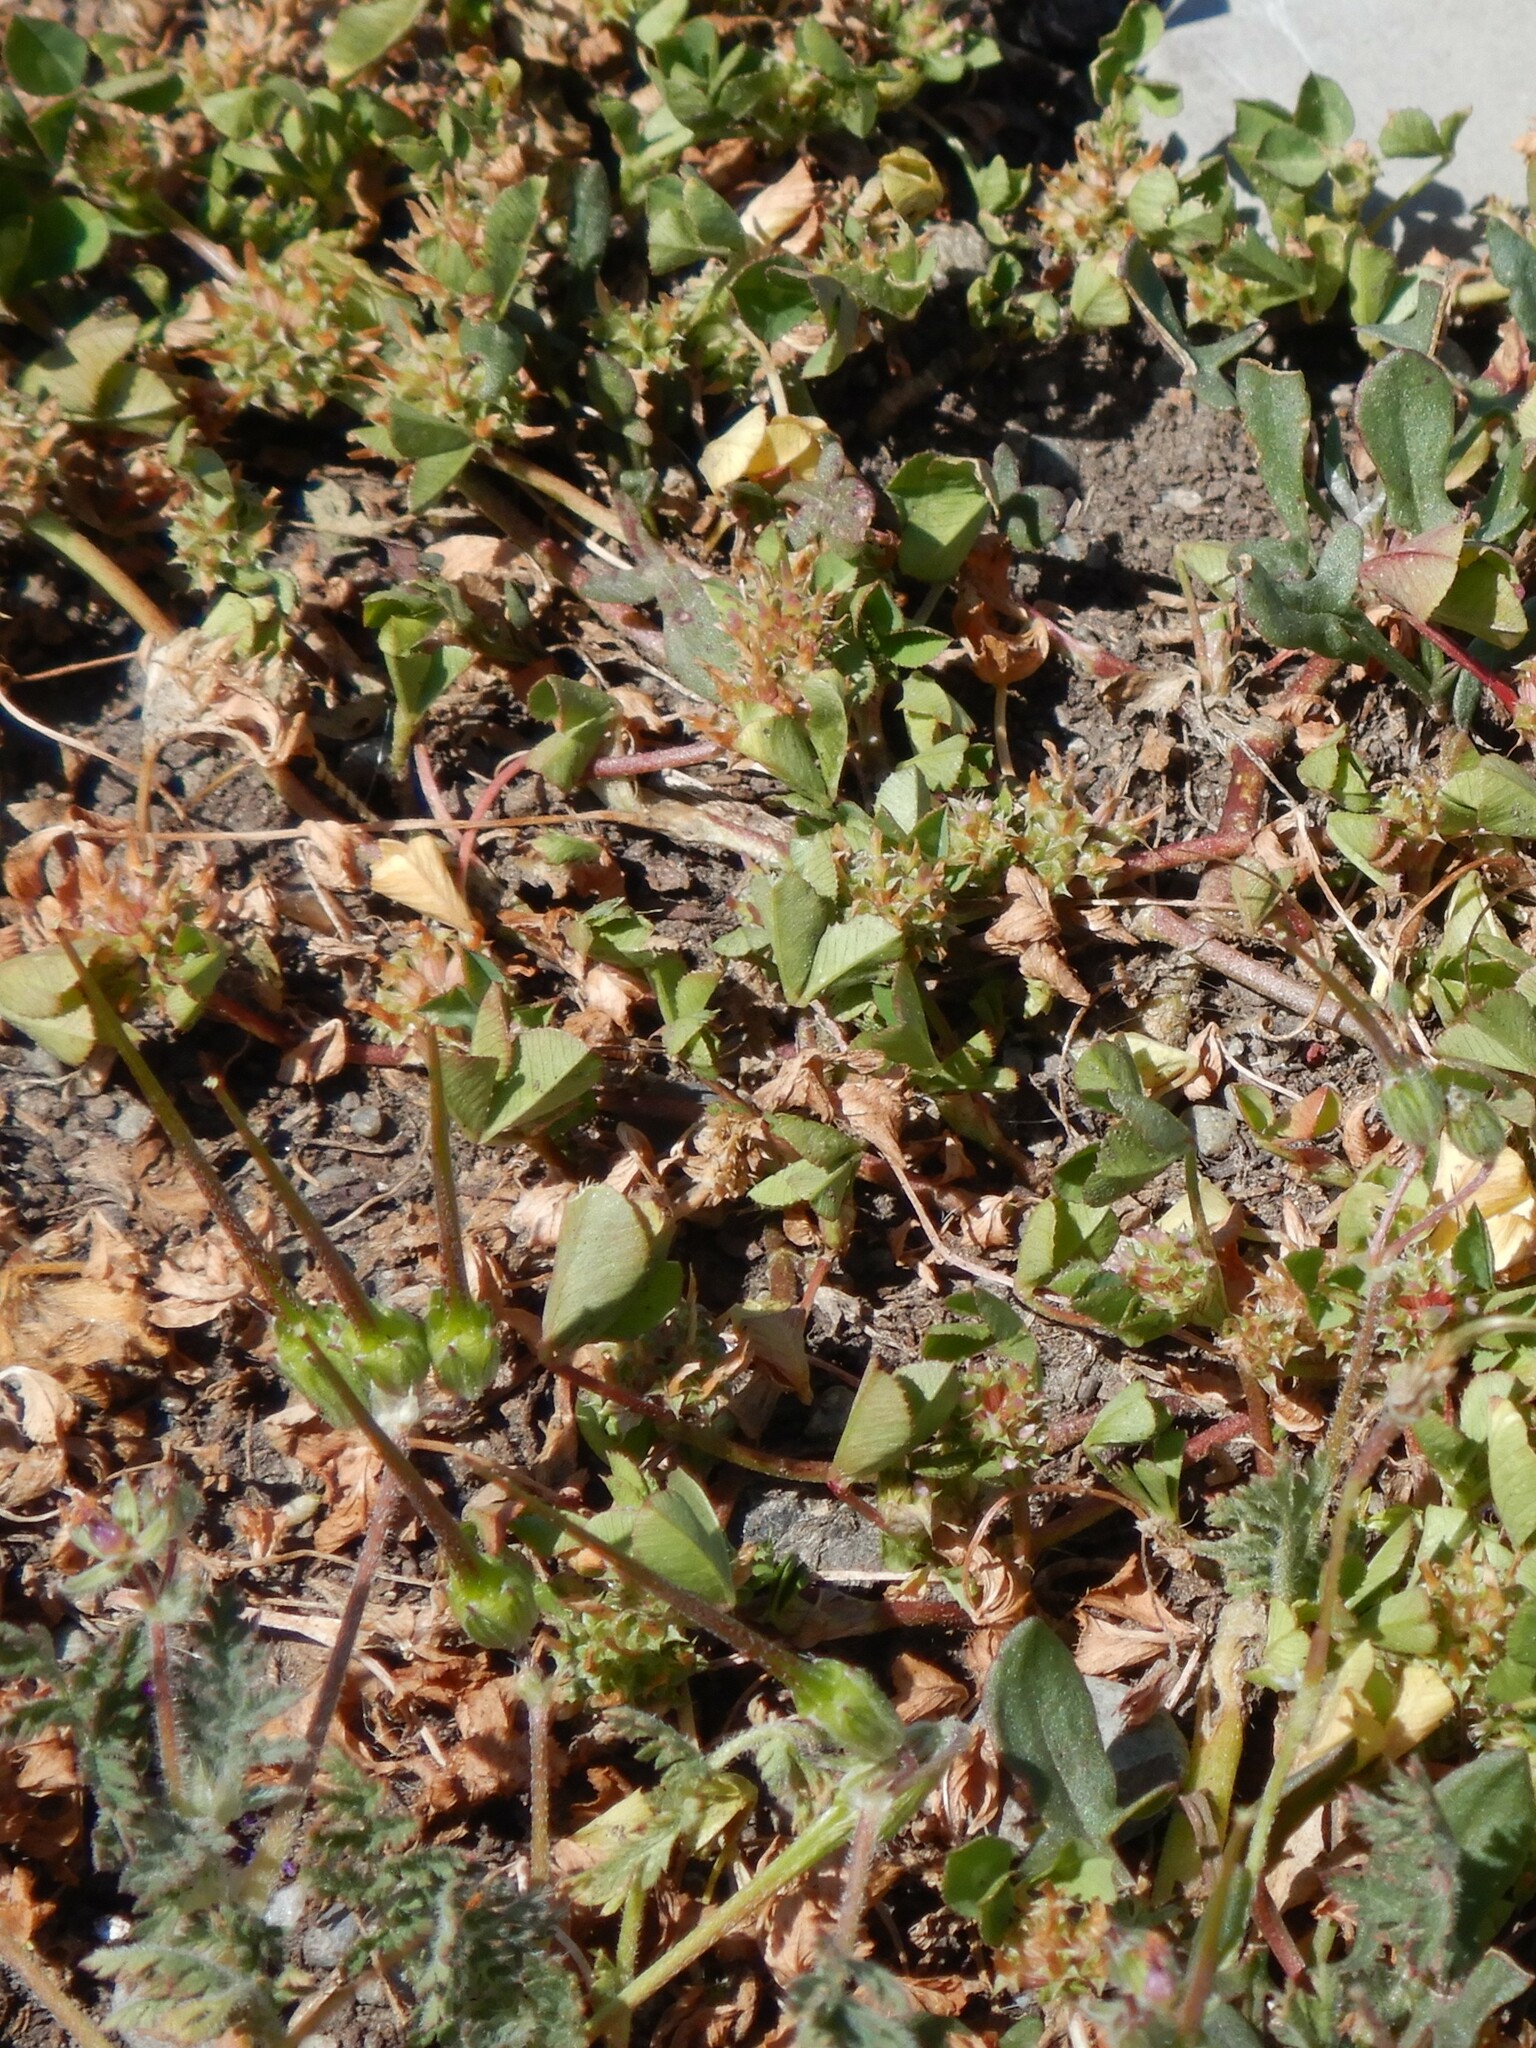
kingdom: Plantae
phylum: Tracheophyta
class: Magnoliopsida
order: Fabales
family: Fabaceae
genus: Trifolium
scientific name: Trifolium glomeratum
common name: Clustered clover
